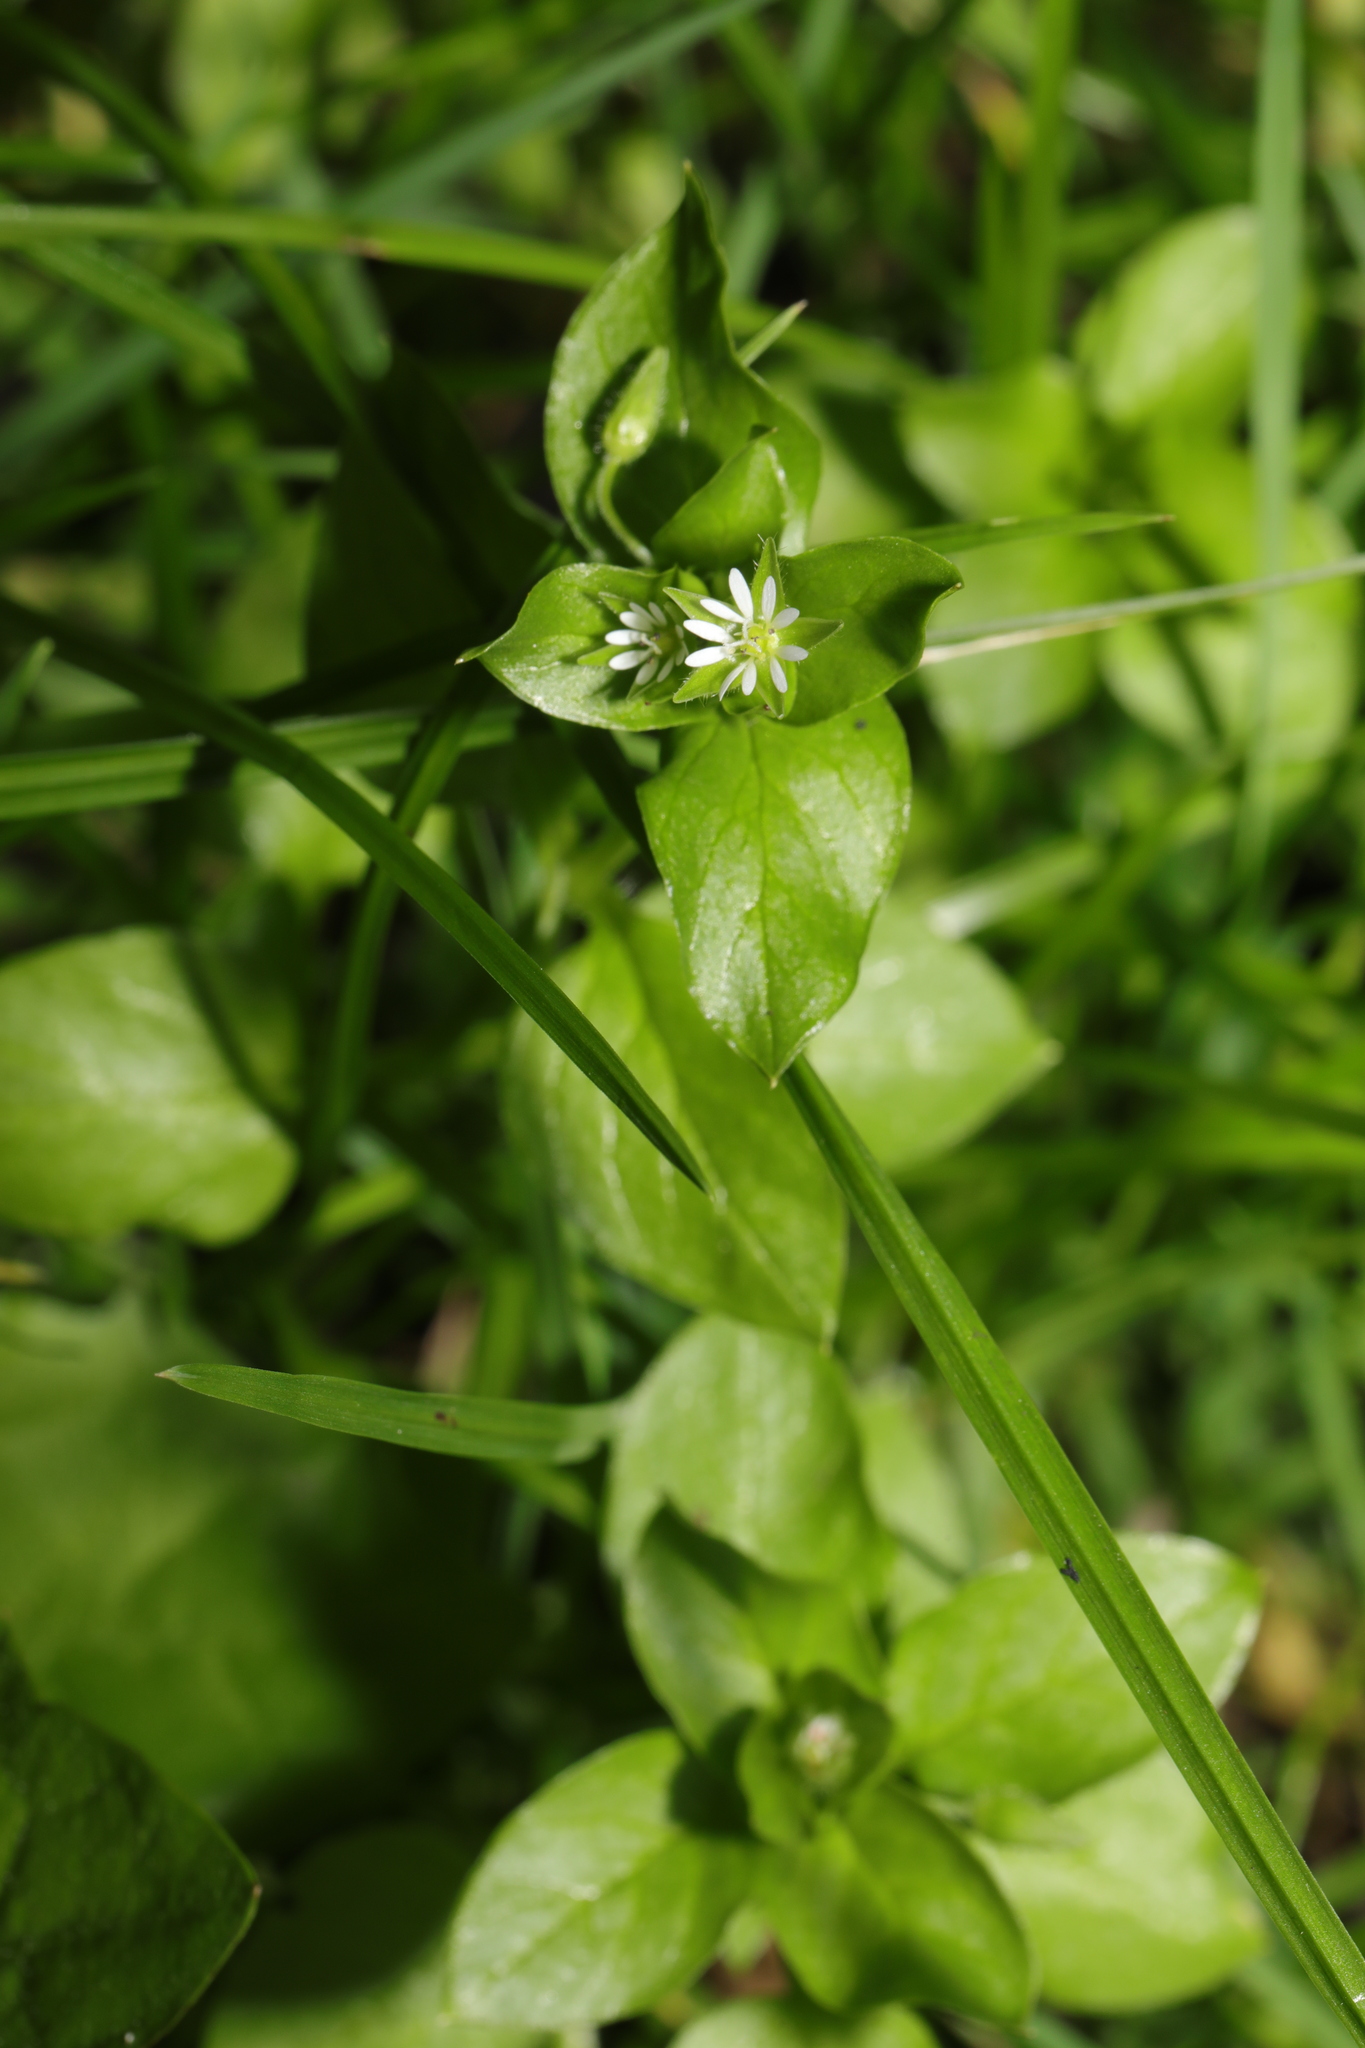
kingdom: Plantae
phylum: Tracheophyta
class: Magnoliopsida
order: Caryophyllales
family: Caryophyllaceae
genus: Stellaria
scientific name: Stellaria media
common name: Common chickweed
